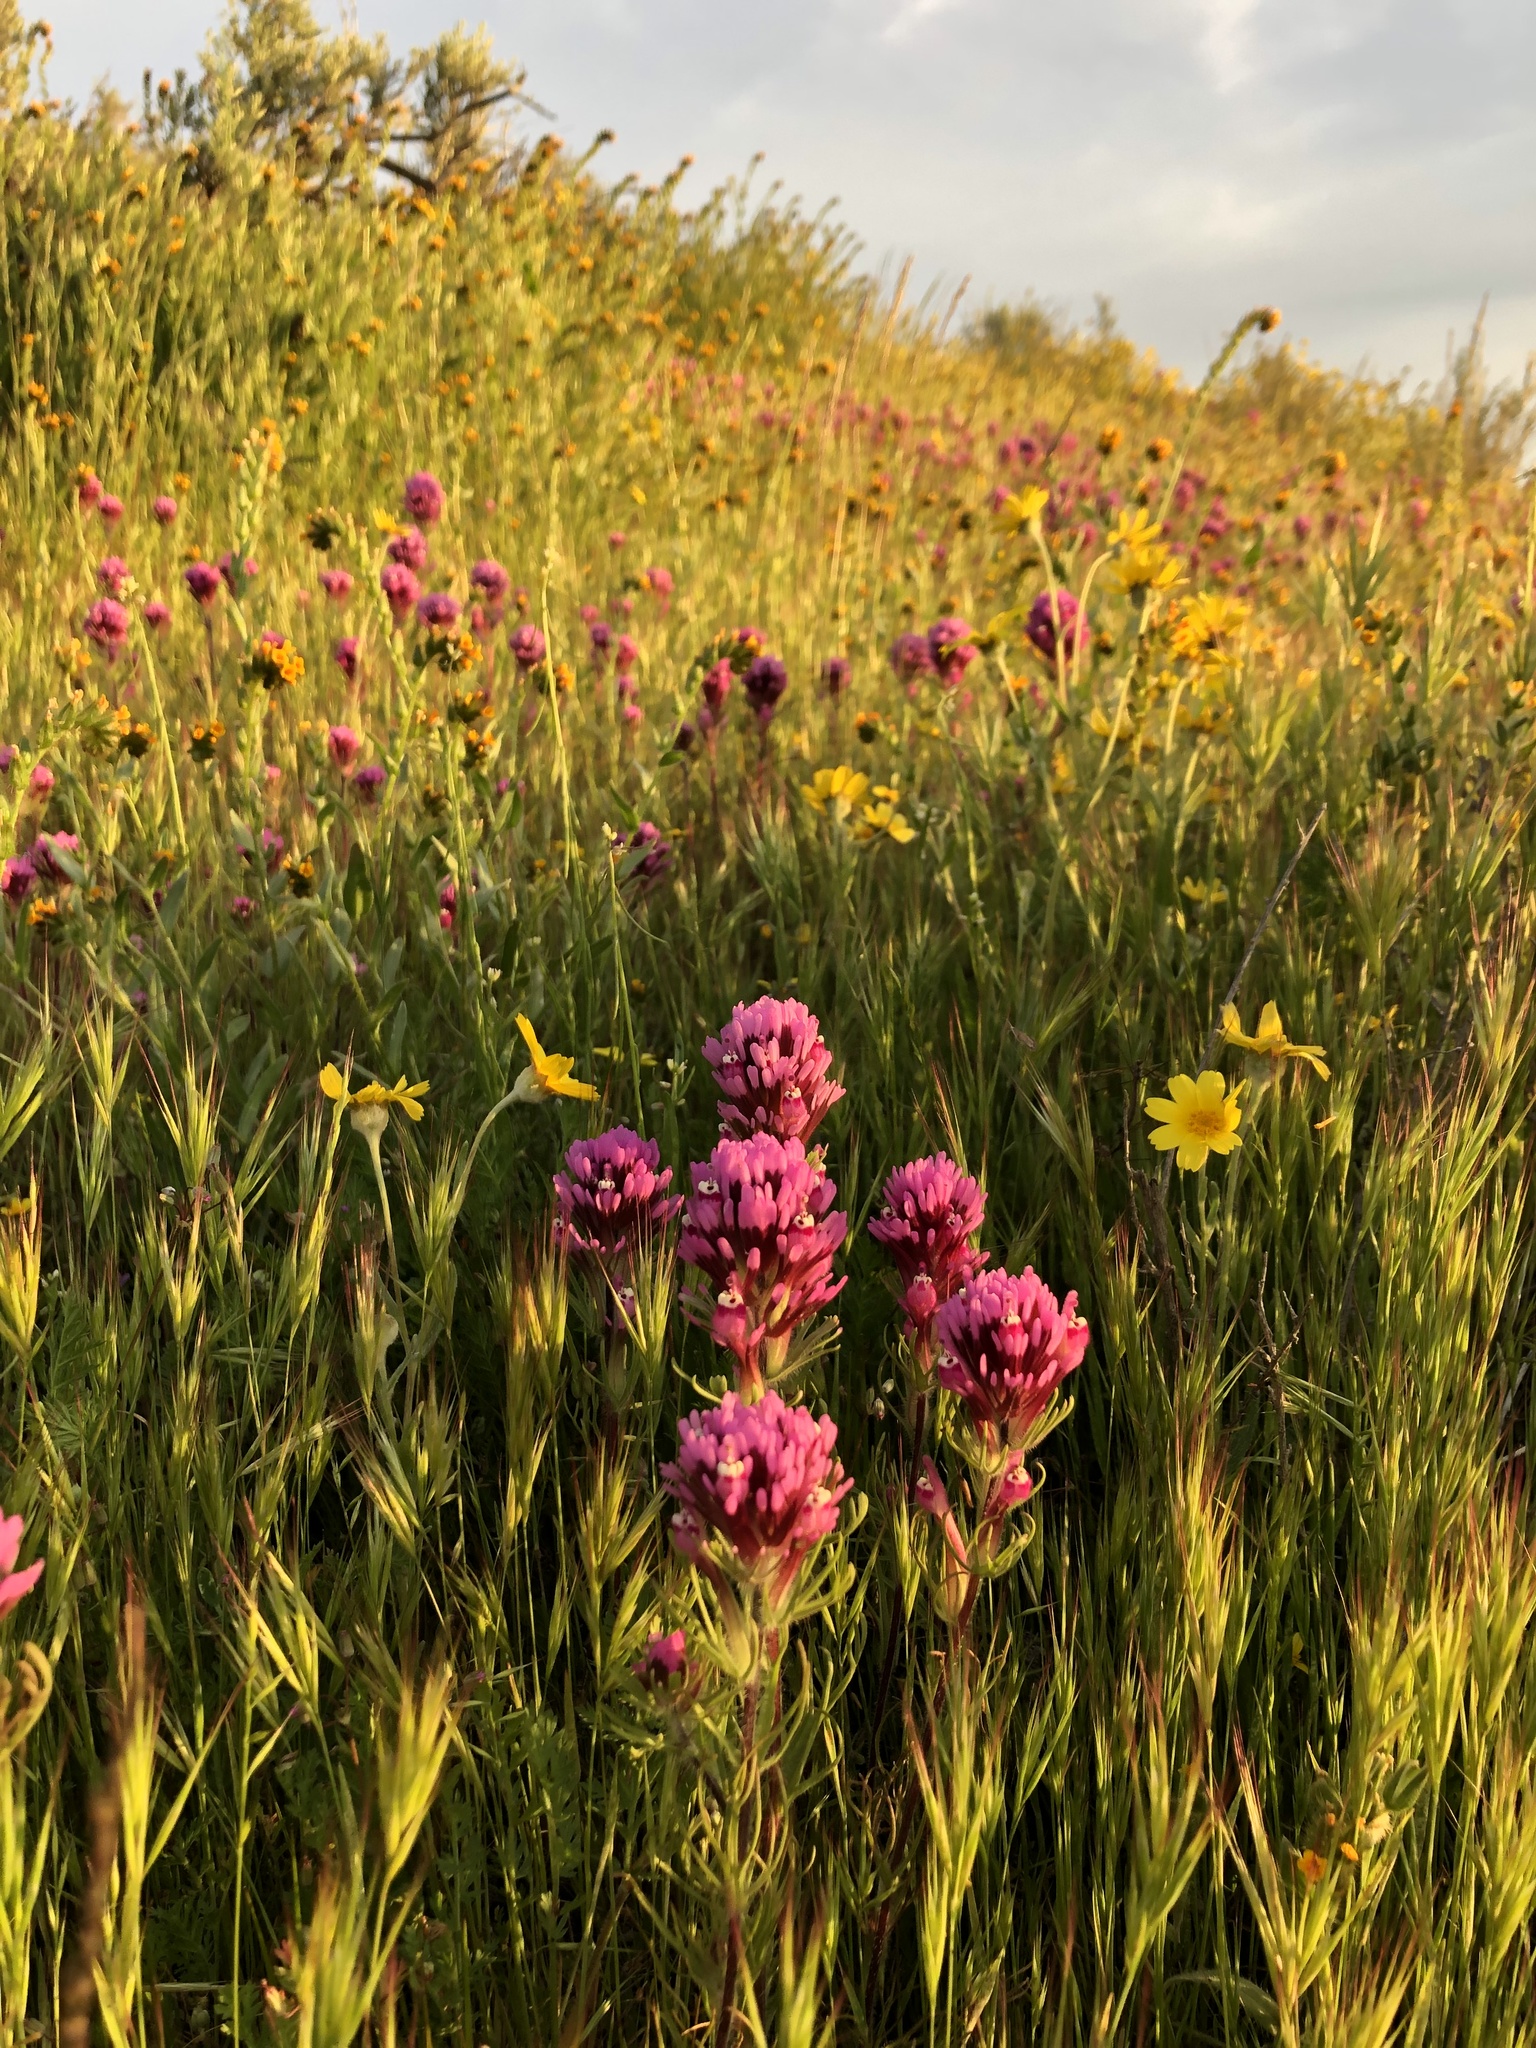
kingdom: Plantae
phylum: Tracheophyta
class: Magnoliopsida
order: Lamiales
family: Orobanchaceae
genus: Castilleja
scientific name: Castilleja exserta
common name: Purple owl-clover
